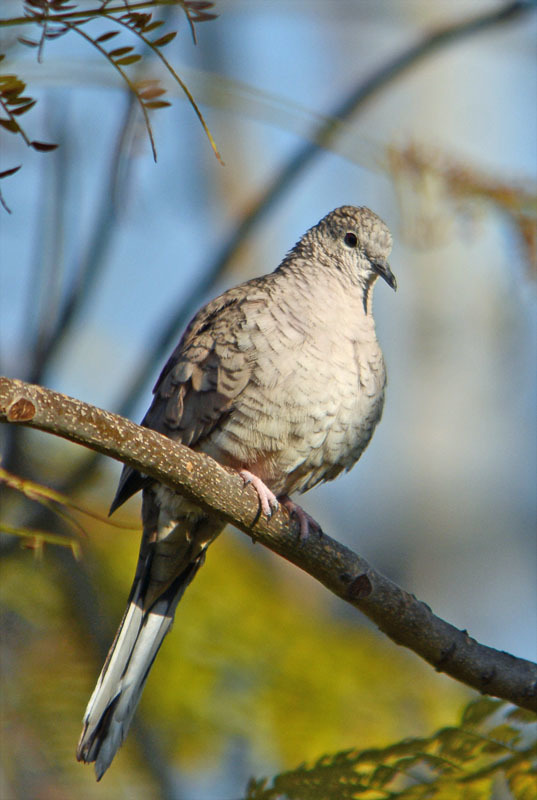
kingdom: Animalia
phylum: Chordata
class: Aves
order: Columbiformes
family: Columbidae
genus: Columbina
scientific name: Columbina inca
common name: Inca dove
